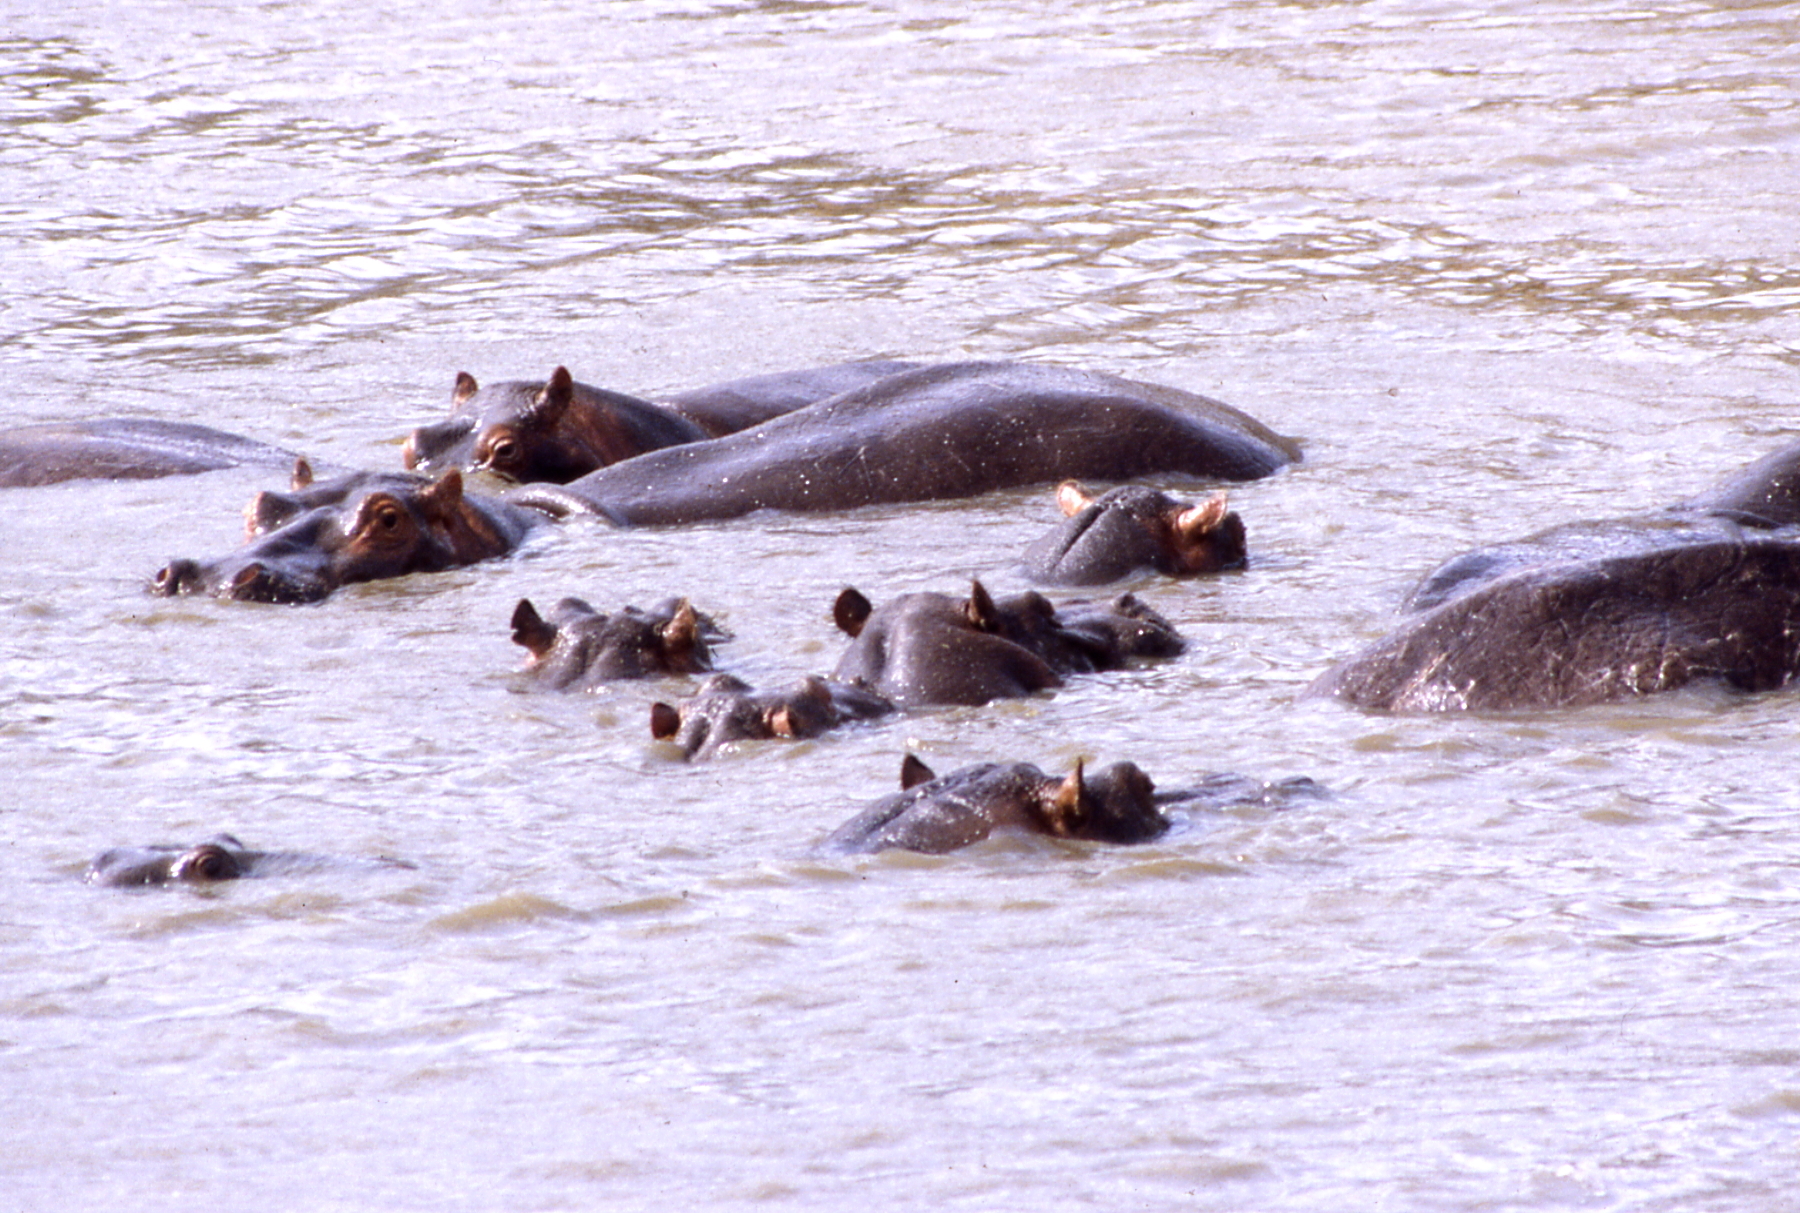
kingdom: Animalia
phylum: Chordata
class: Mammalia
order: Artiodactyla
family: Hippopotamidae
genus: Hippopotamus
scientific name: Hippopotamus amphibius
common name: Common hippopotamus
